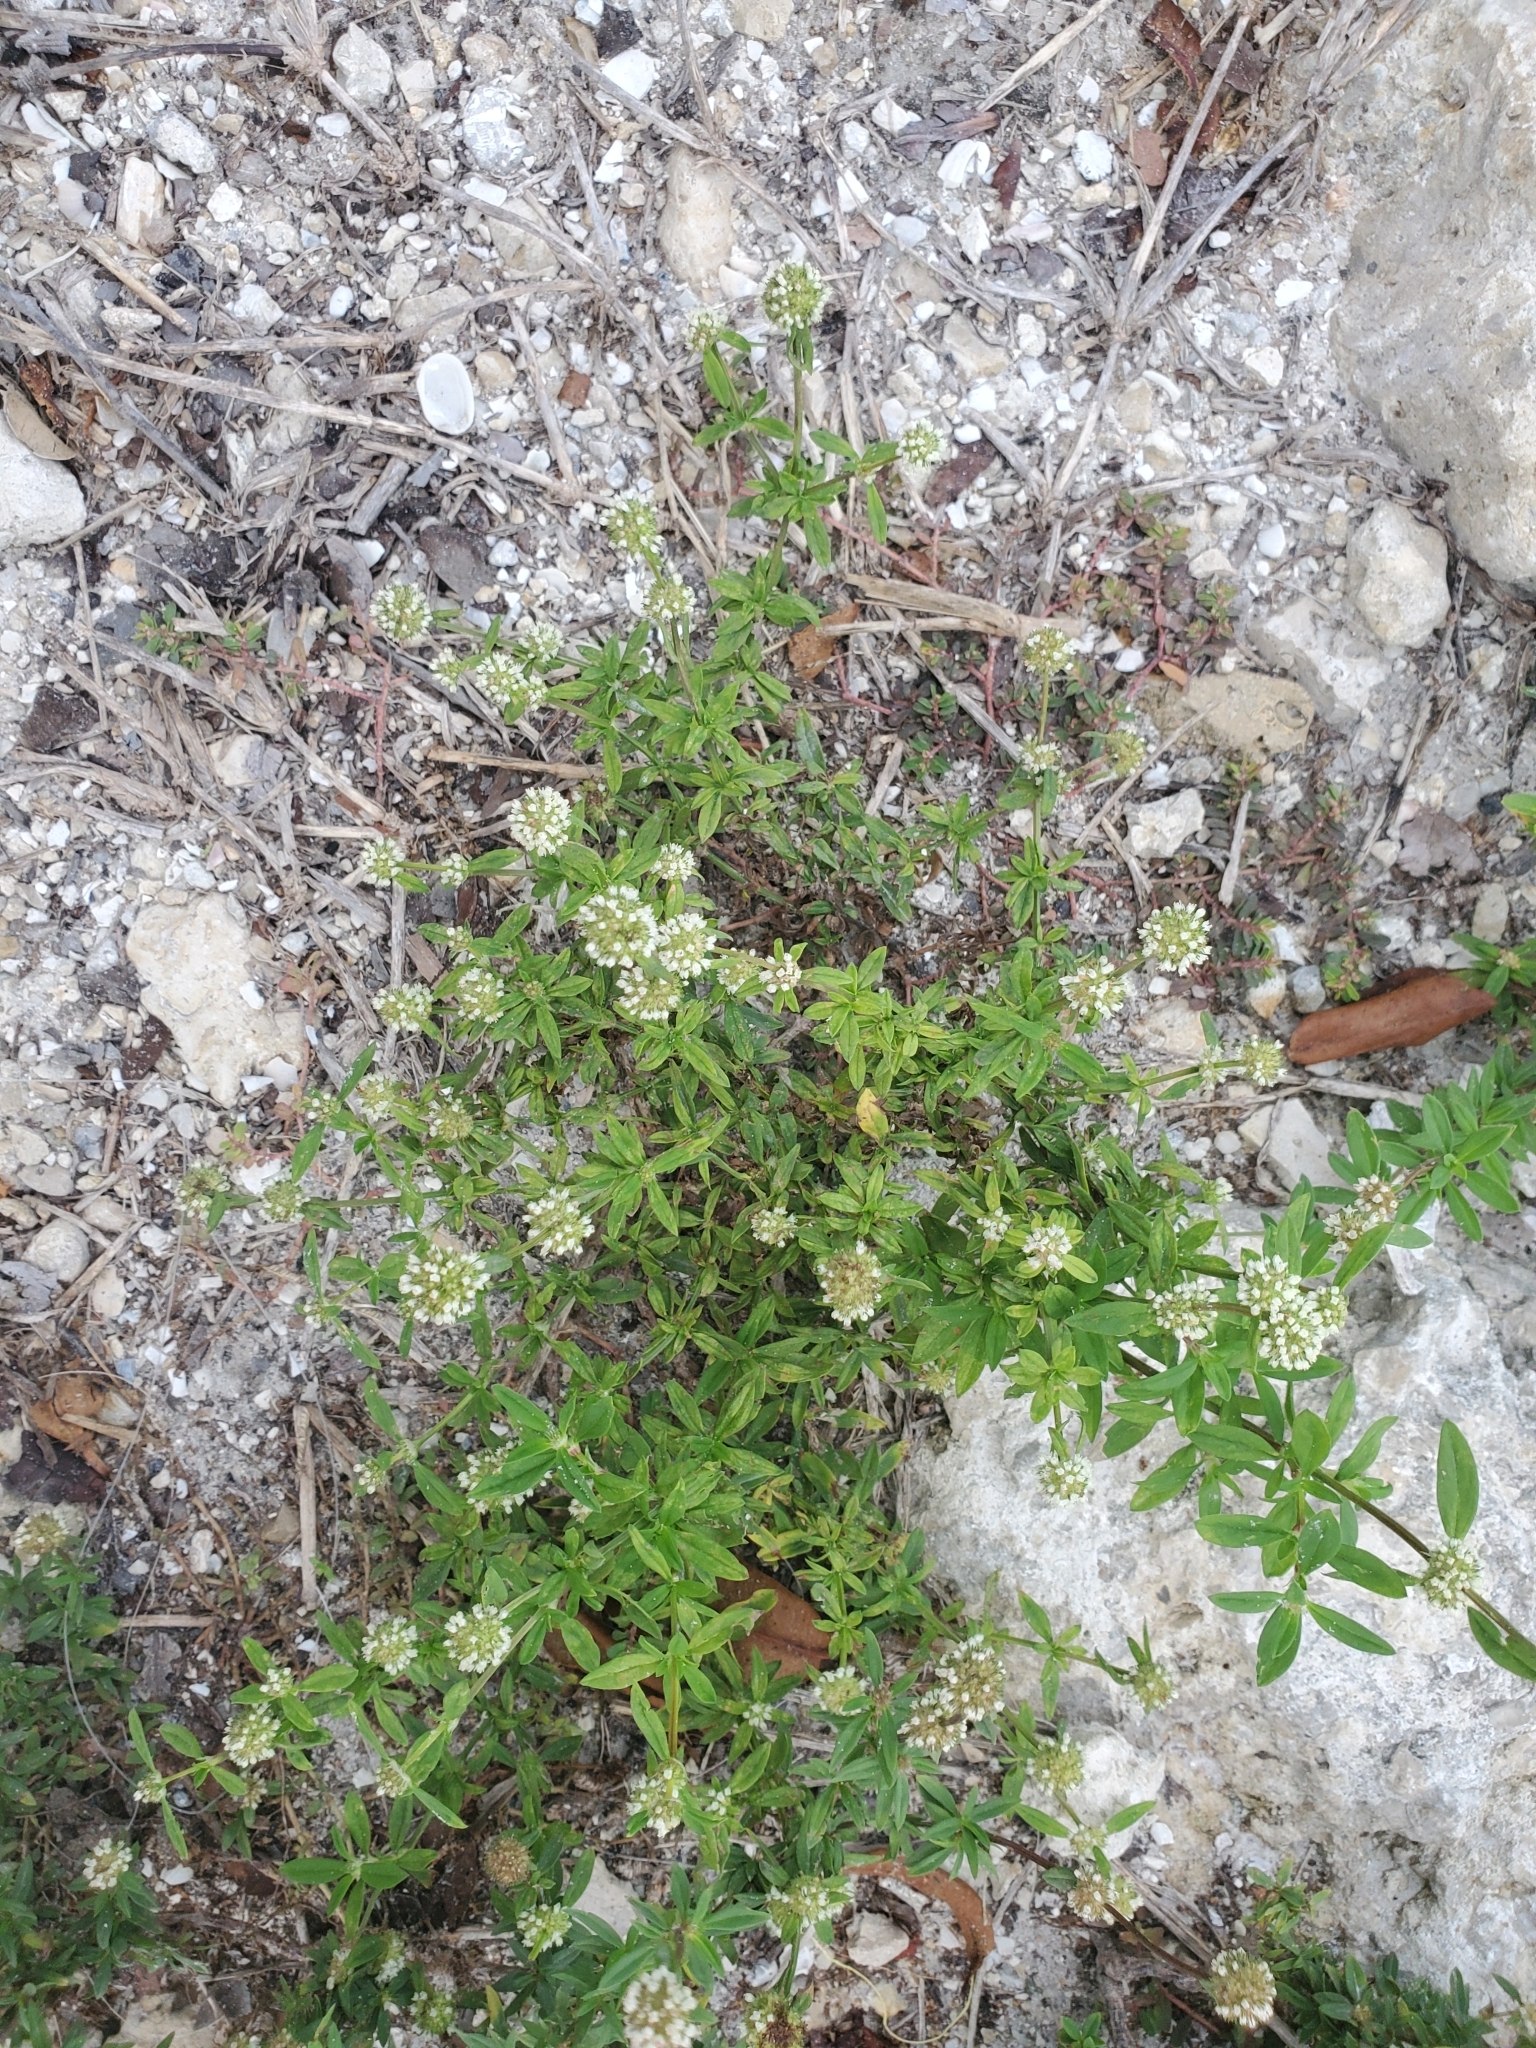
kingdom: Plantae
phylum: Tracheophyta
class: Magnoliopsida
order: Gentianales
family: Rubiaceae
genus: Spermacoce
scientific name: Spermacoce verticillata
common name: Shrubby false buttonweed
